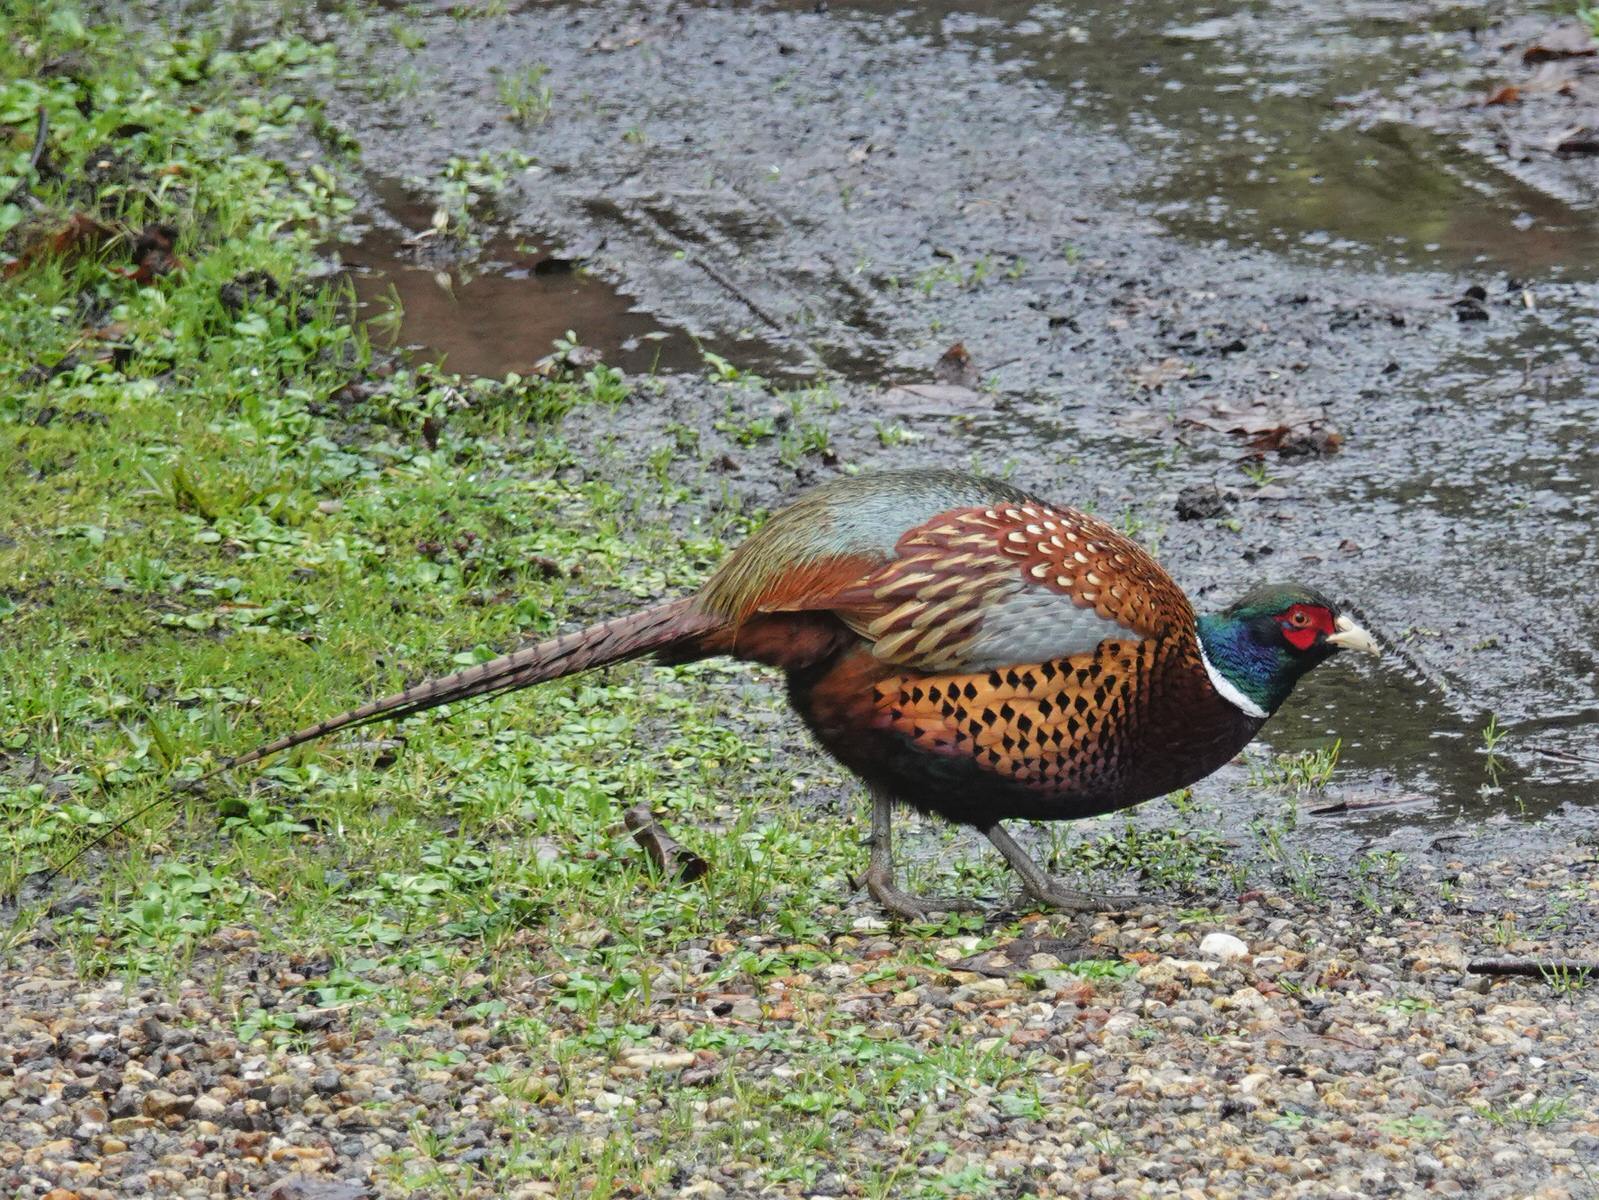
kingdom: Animalia
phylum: Chordata
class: Aves
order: Galliformes
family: Phasianidae
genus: Phasianus
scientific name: Phasianus colchicus
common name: Common pheasant
